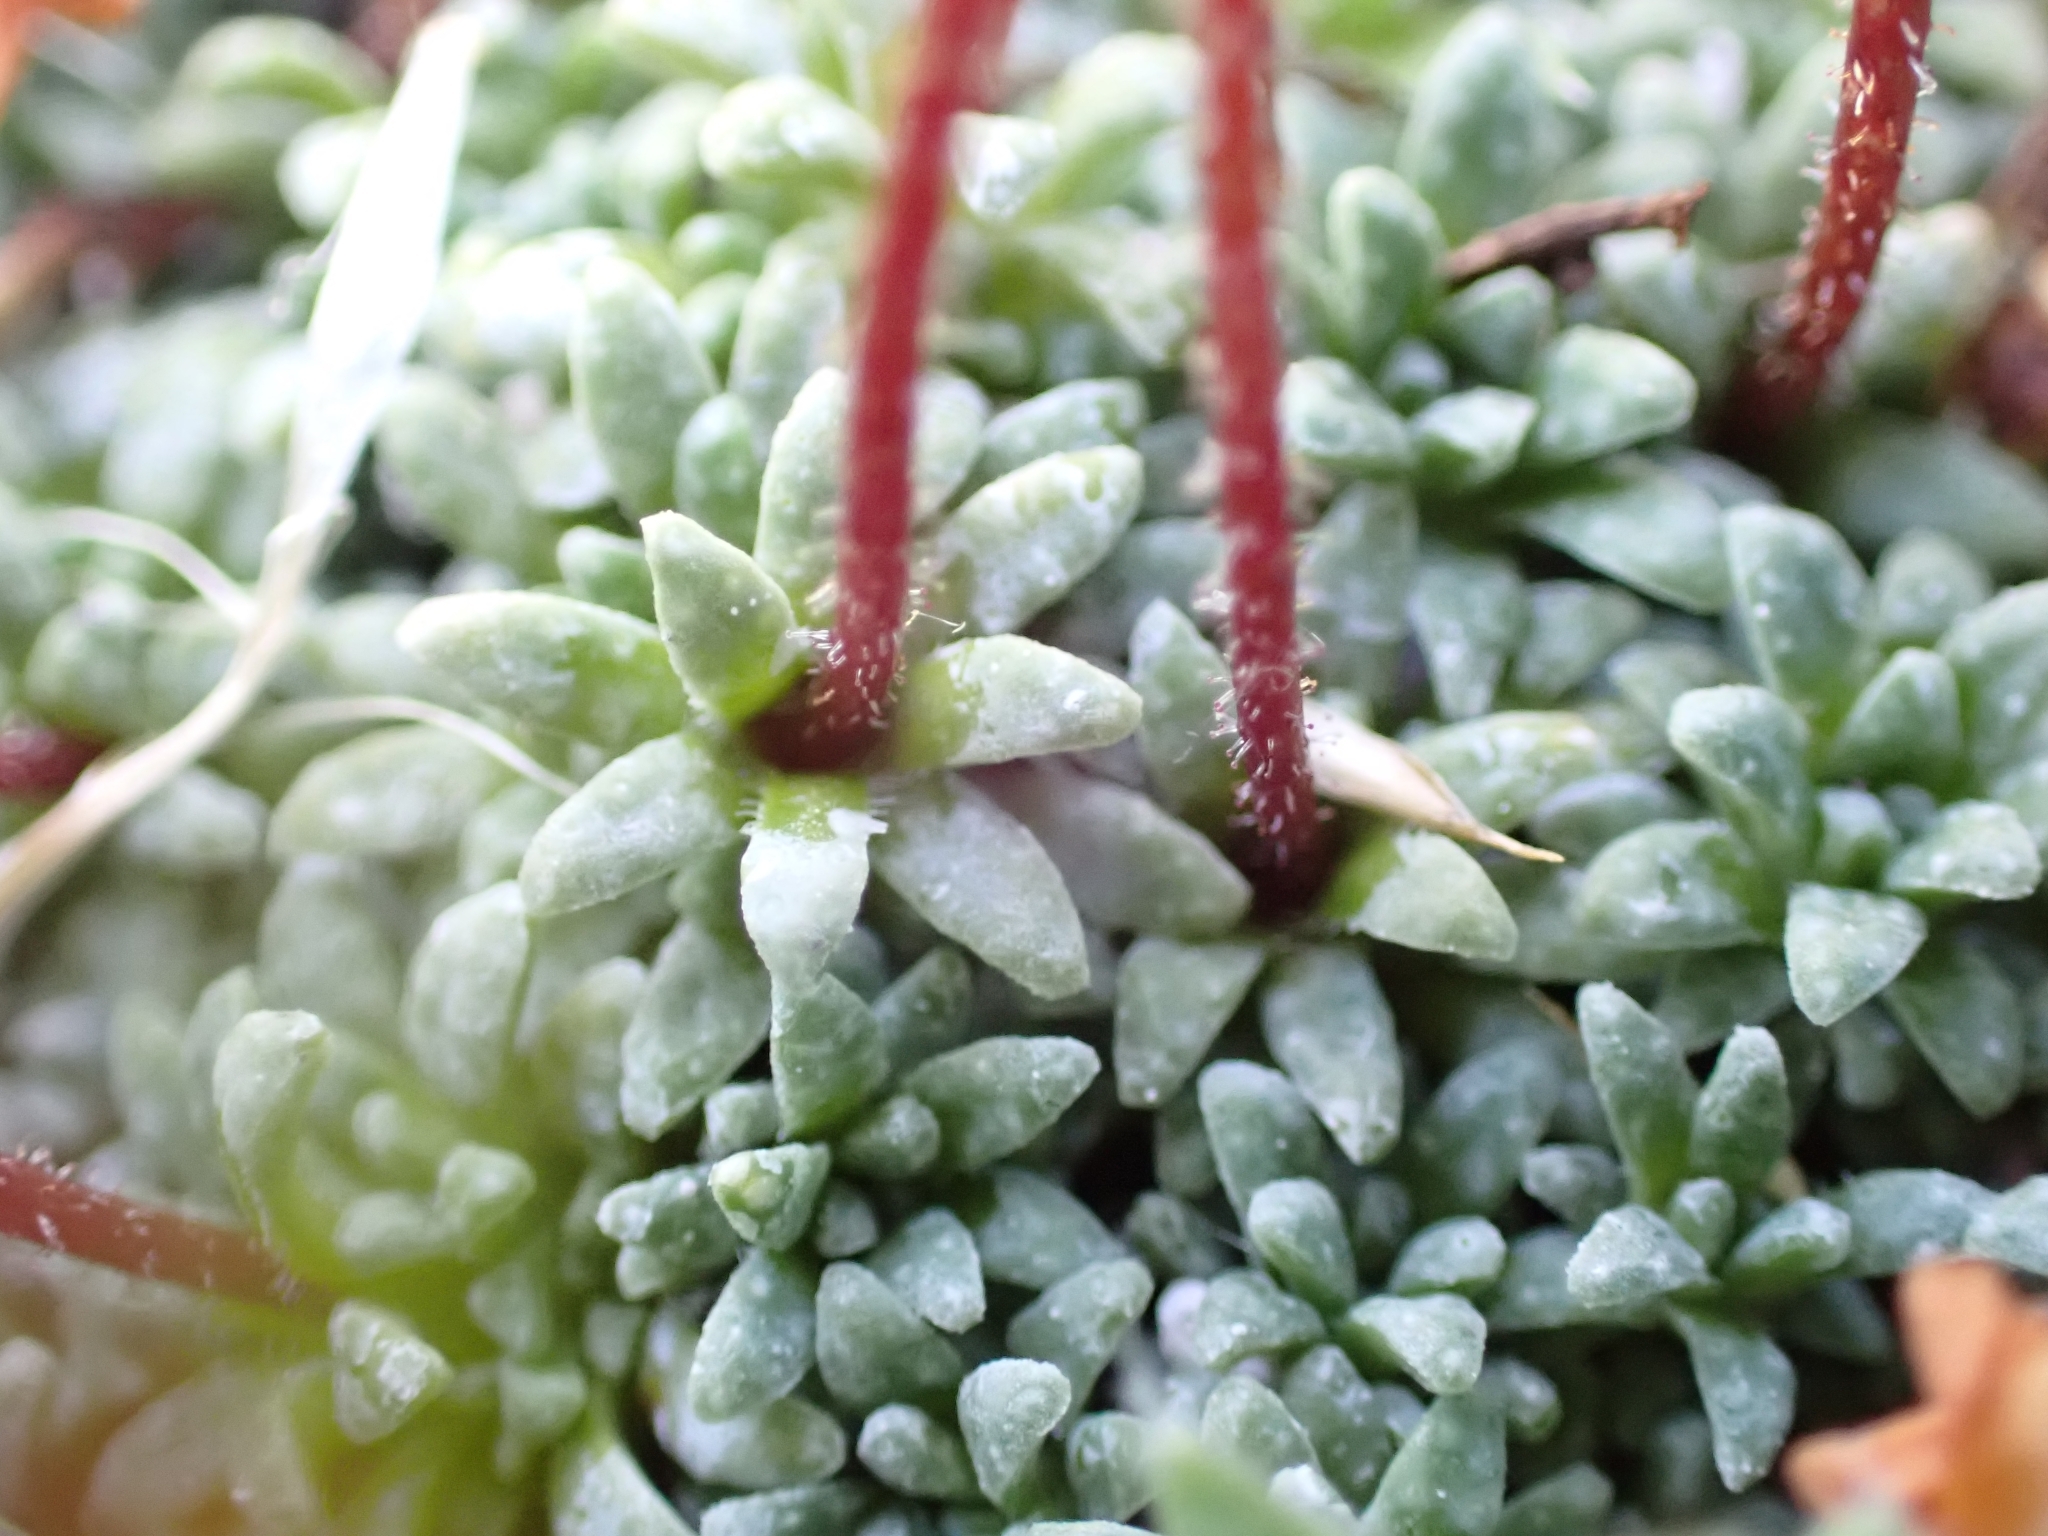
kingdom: Plantae
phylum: Tracheophyta
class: Magnoliopsida
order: Saxifragales
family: Saxifragaceae
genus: Saxifraga
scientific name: Saxifraga caesia
